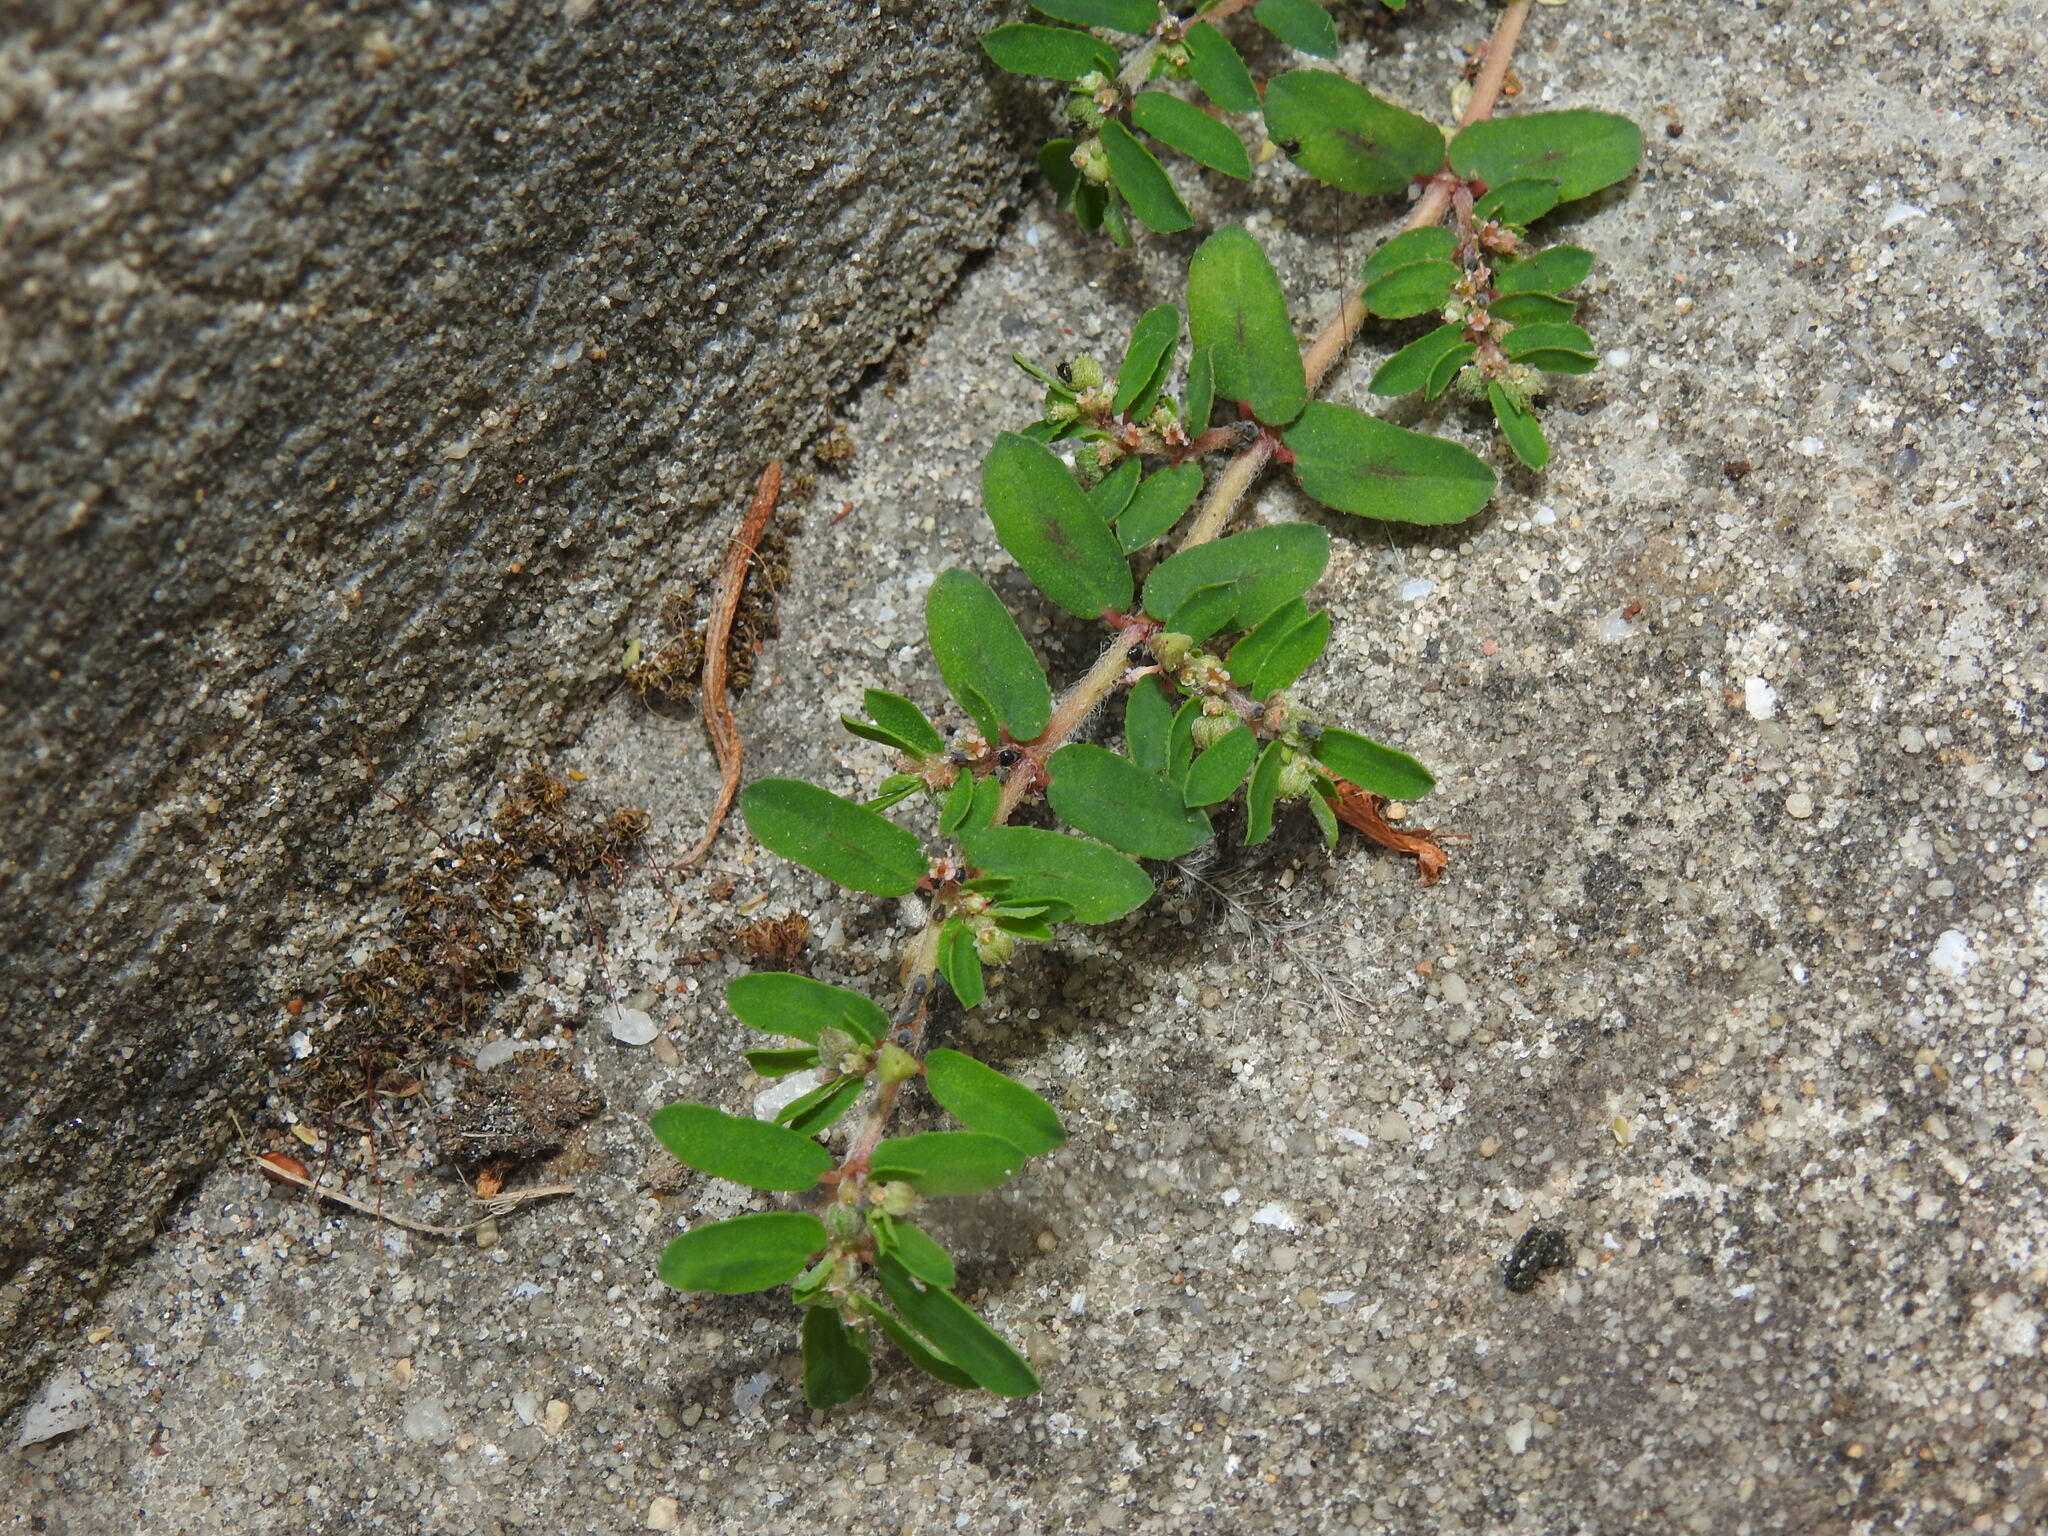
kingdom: Plantae
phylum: Tracheophyta
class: Magnoliopsida
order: Malpighiales
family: Euphorbiaceae
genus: Euphorbia
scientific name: Euphorbia maculata
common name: Spotted spurge
